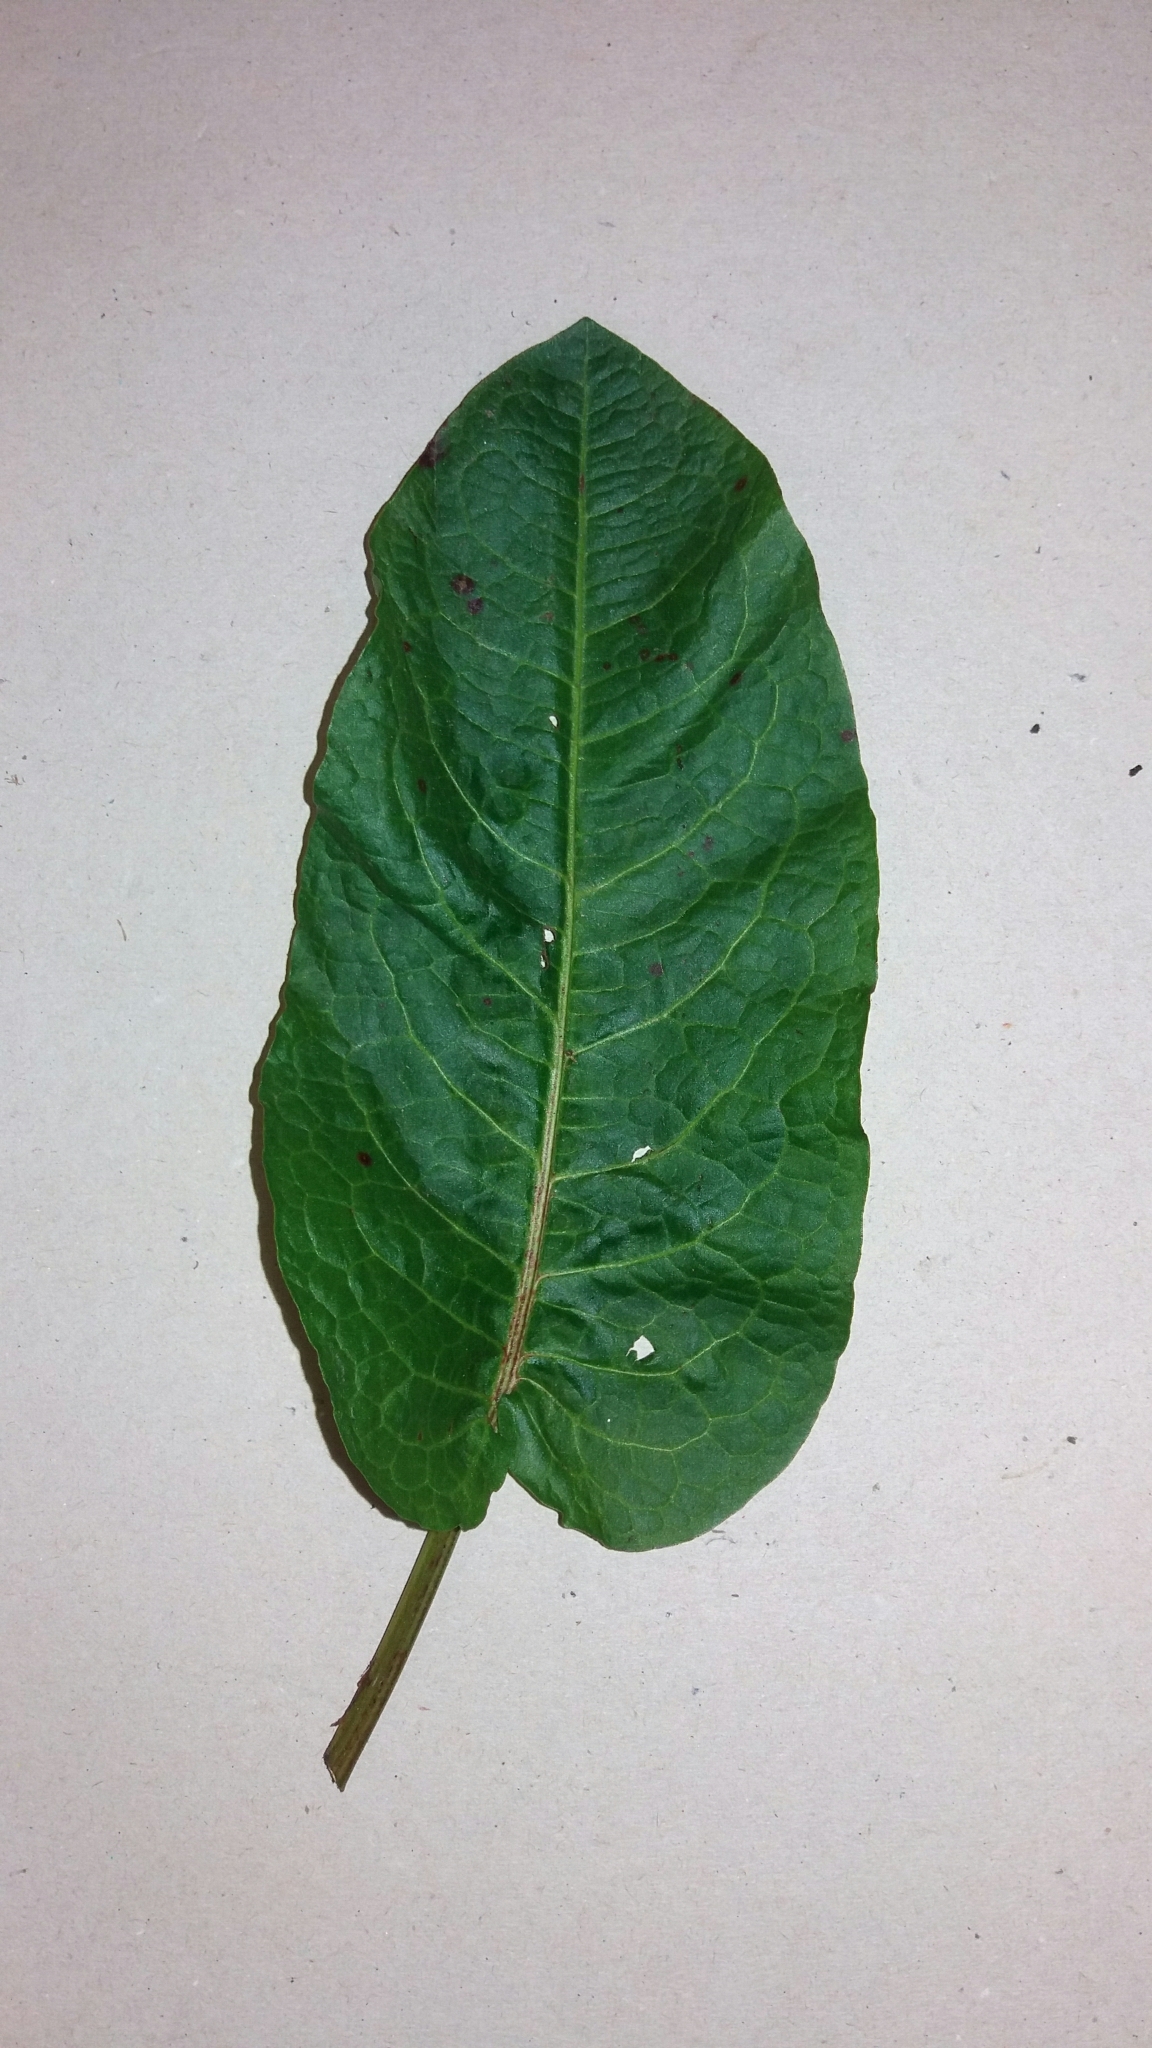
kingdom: Plantae
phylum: Tracheophyta
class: Magnoliopsida
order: Caryophyllales
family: Polygonaceae
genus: Rumex
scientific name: Rumex obtusifolius
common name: Bitter dock
